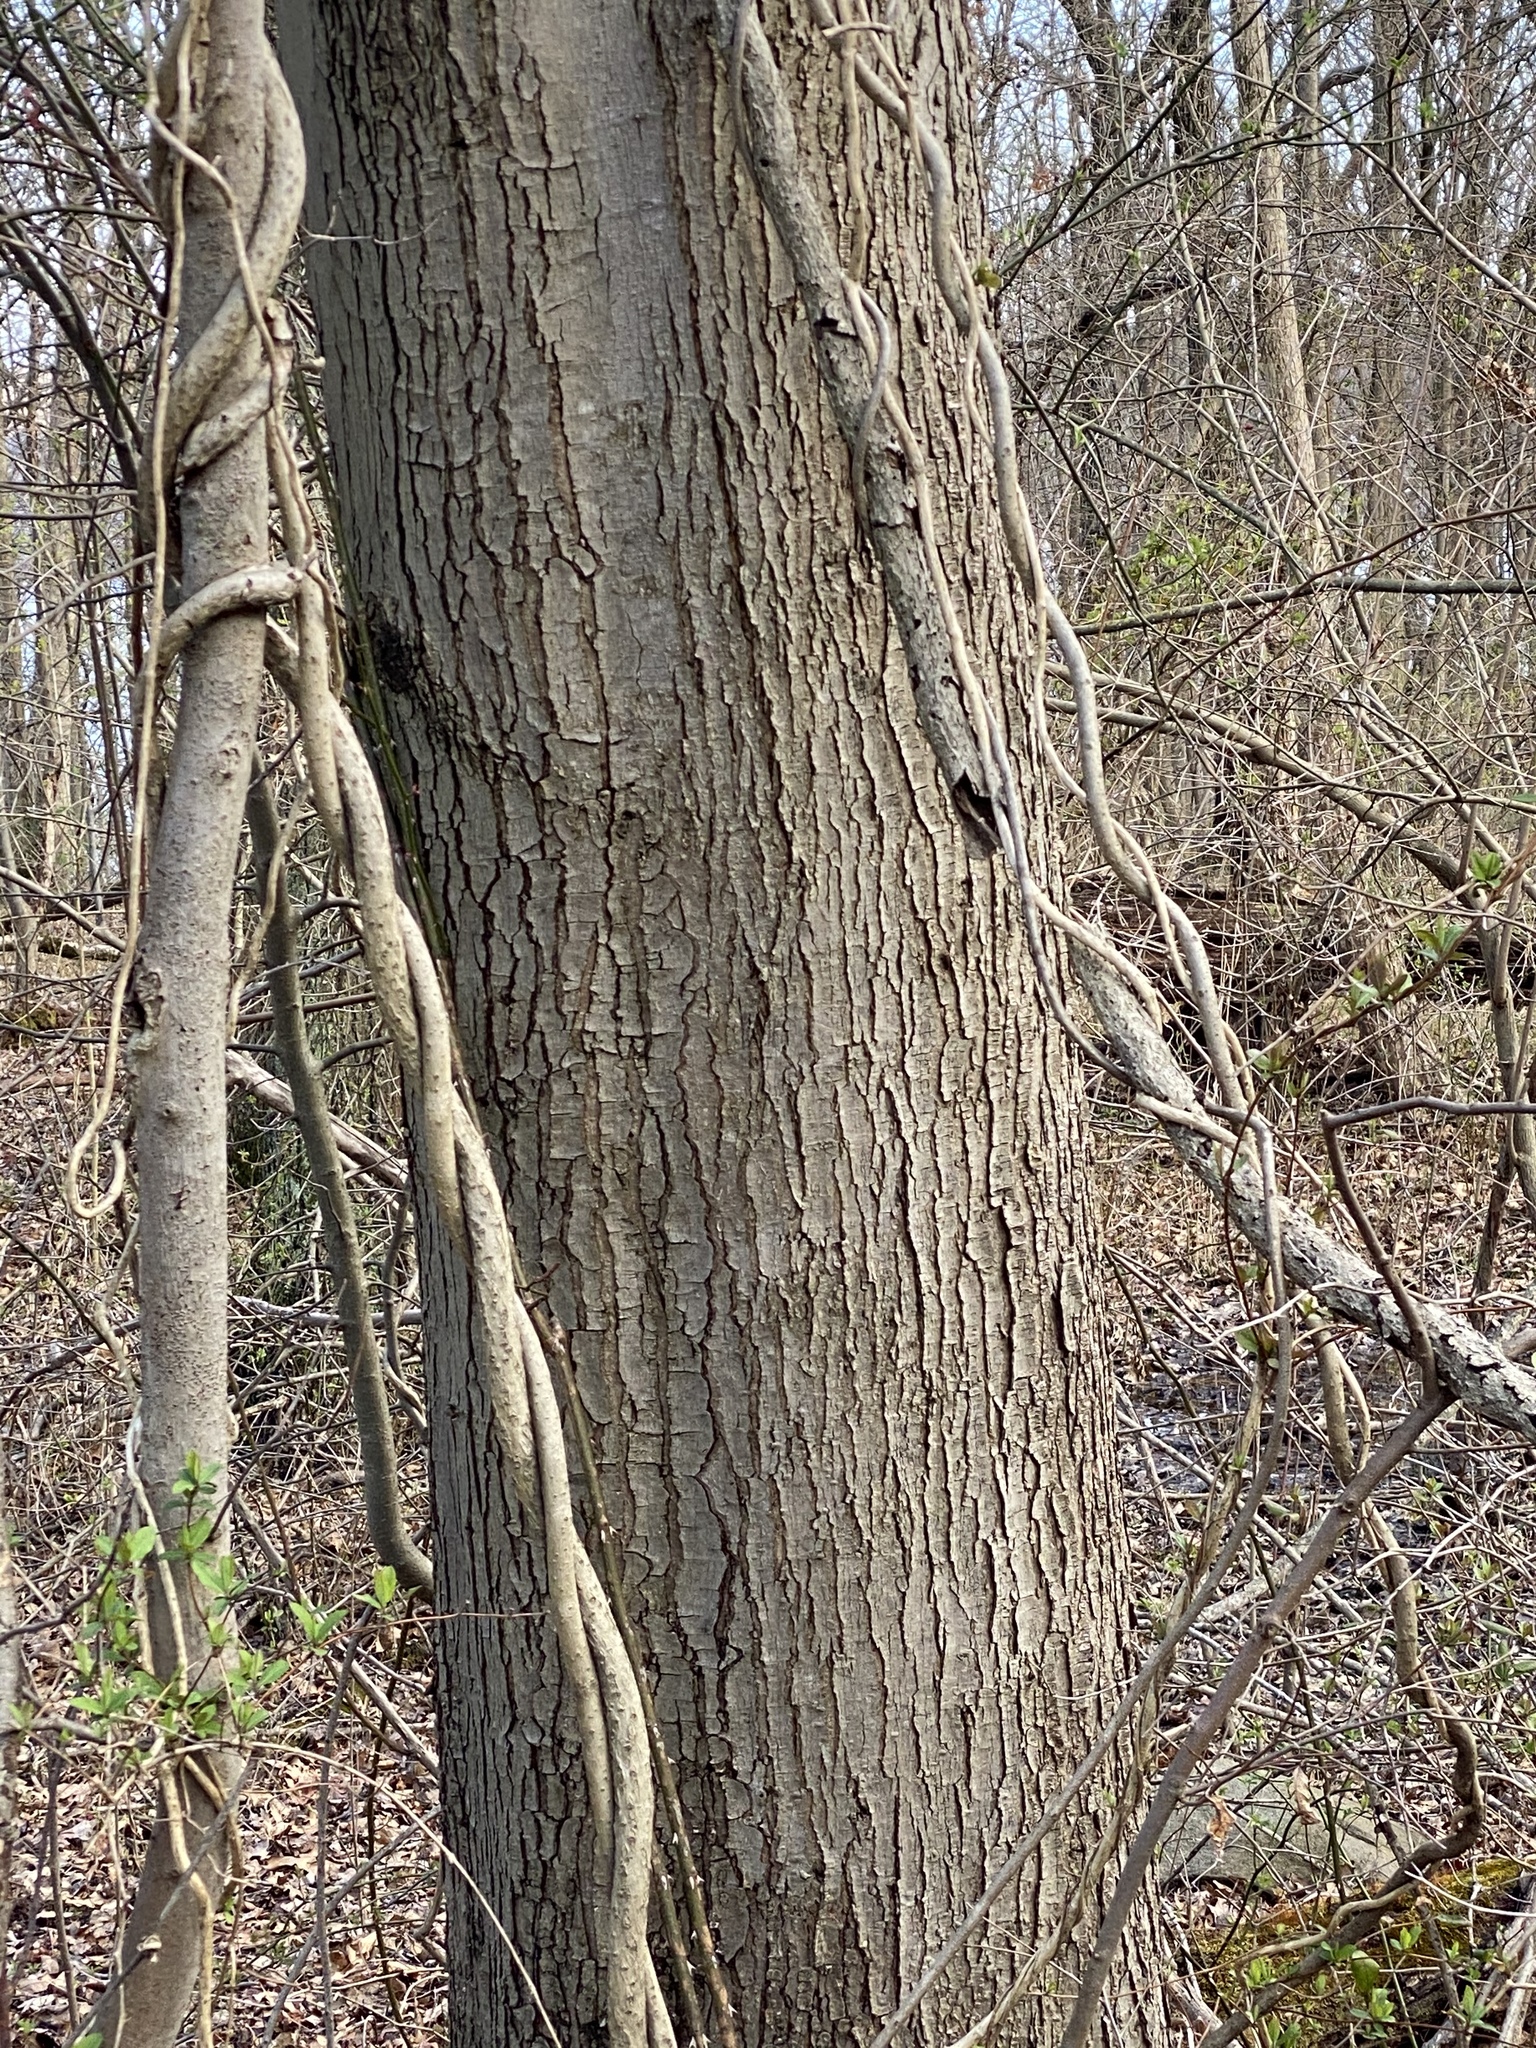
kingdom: Plantae
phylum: Tracheophyta
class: Magnoliopsida
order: Sapindales
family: Sapindaceae
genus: Acer
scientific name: Acer rubrum
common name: Red maple
